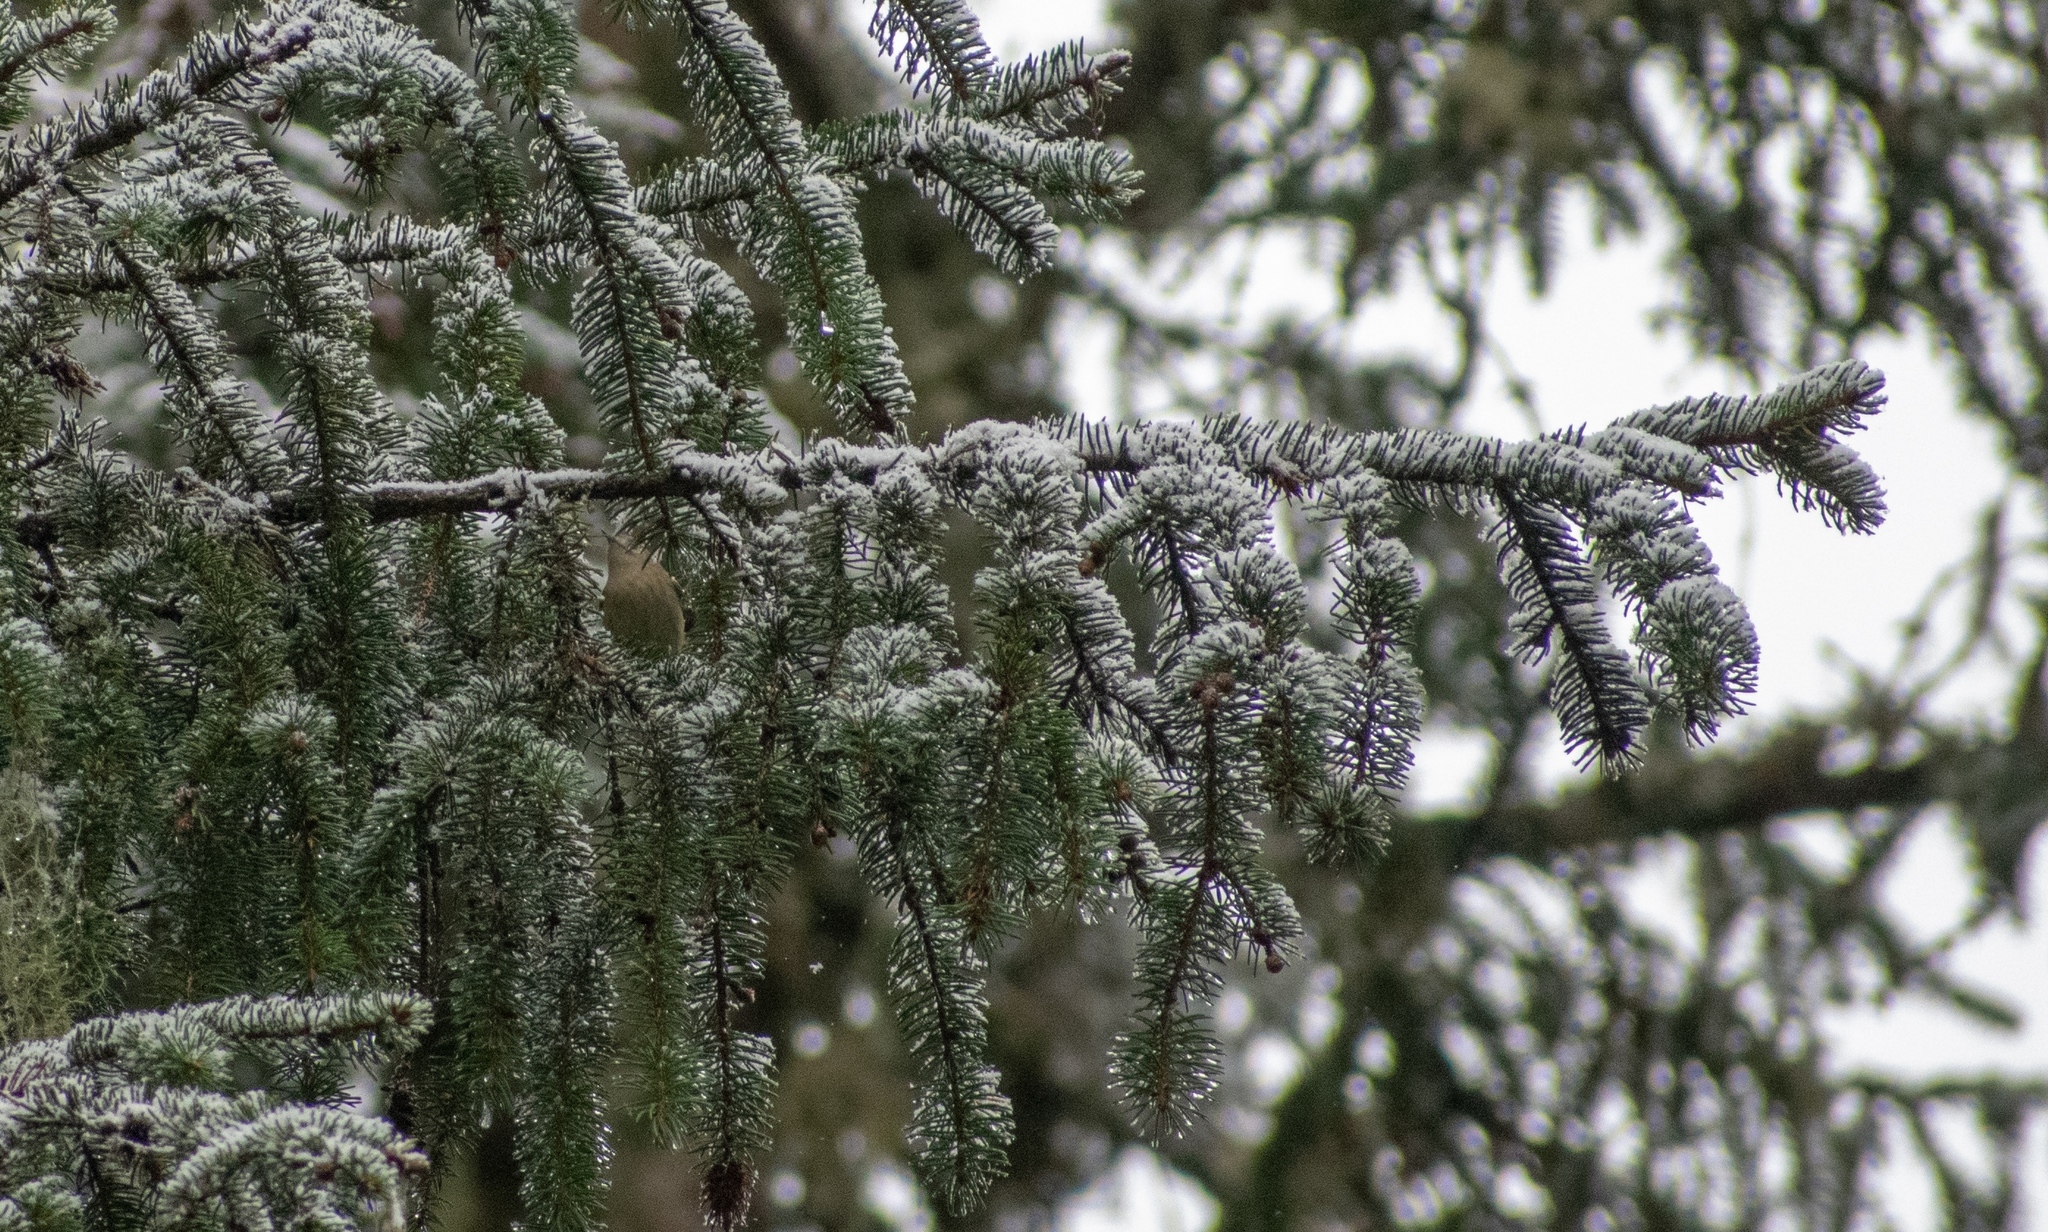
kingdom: Animalia
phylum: Chordata
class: Aves
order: Passeriformes
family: Regulidae
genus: Regulus
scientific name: Regulus regulus
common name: Goldcrest
